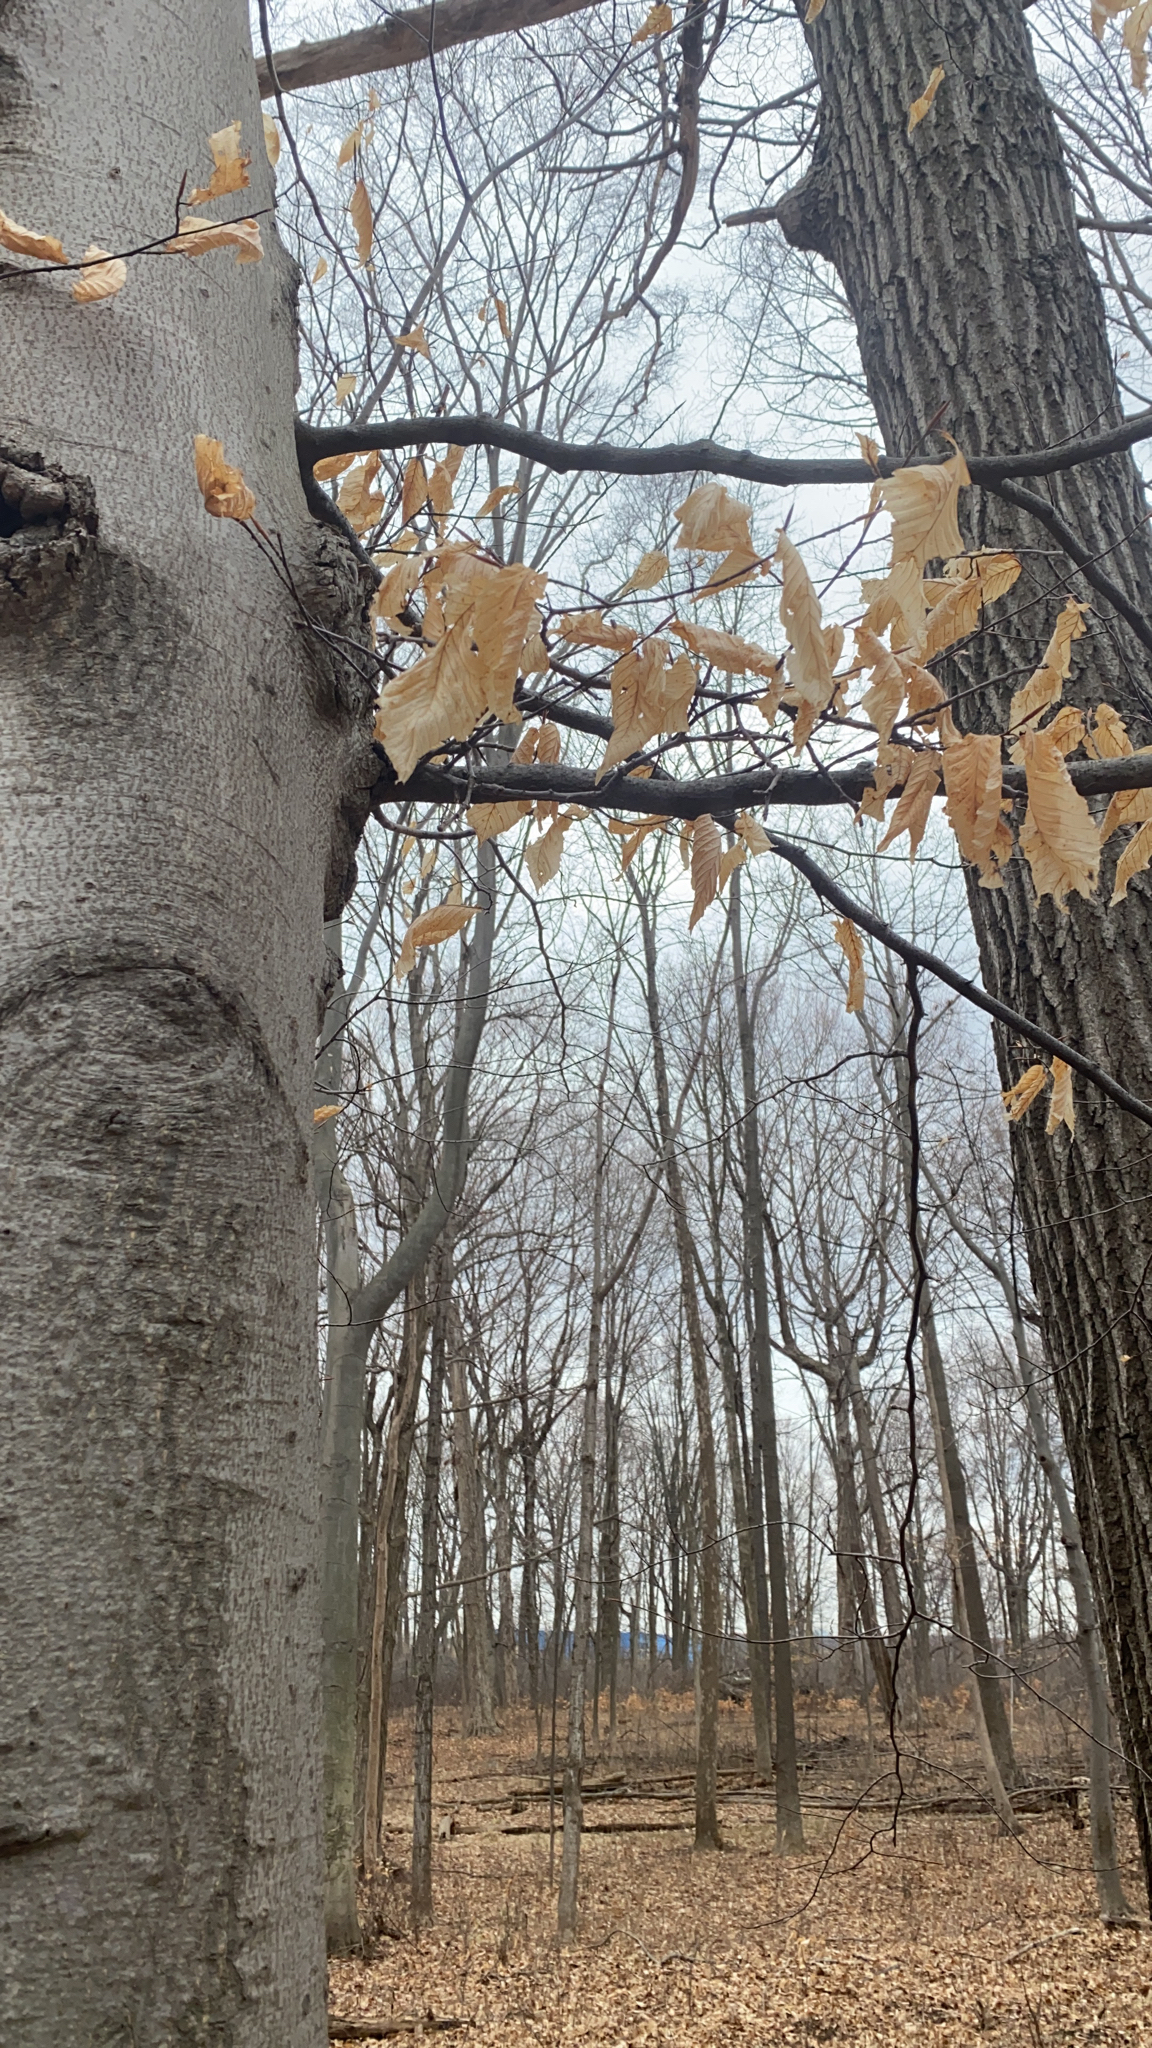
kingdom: Plantae
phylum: Tracheophyta
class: Magnoliopsida
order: Fagales
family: Fagaceae
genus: Fagus
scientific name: Fagus grandifolia
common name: American beech
